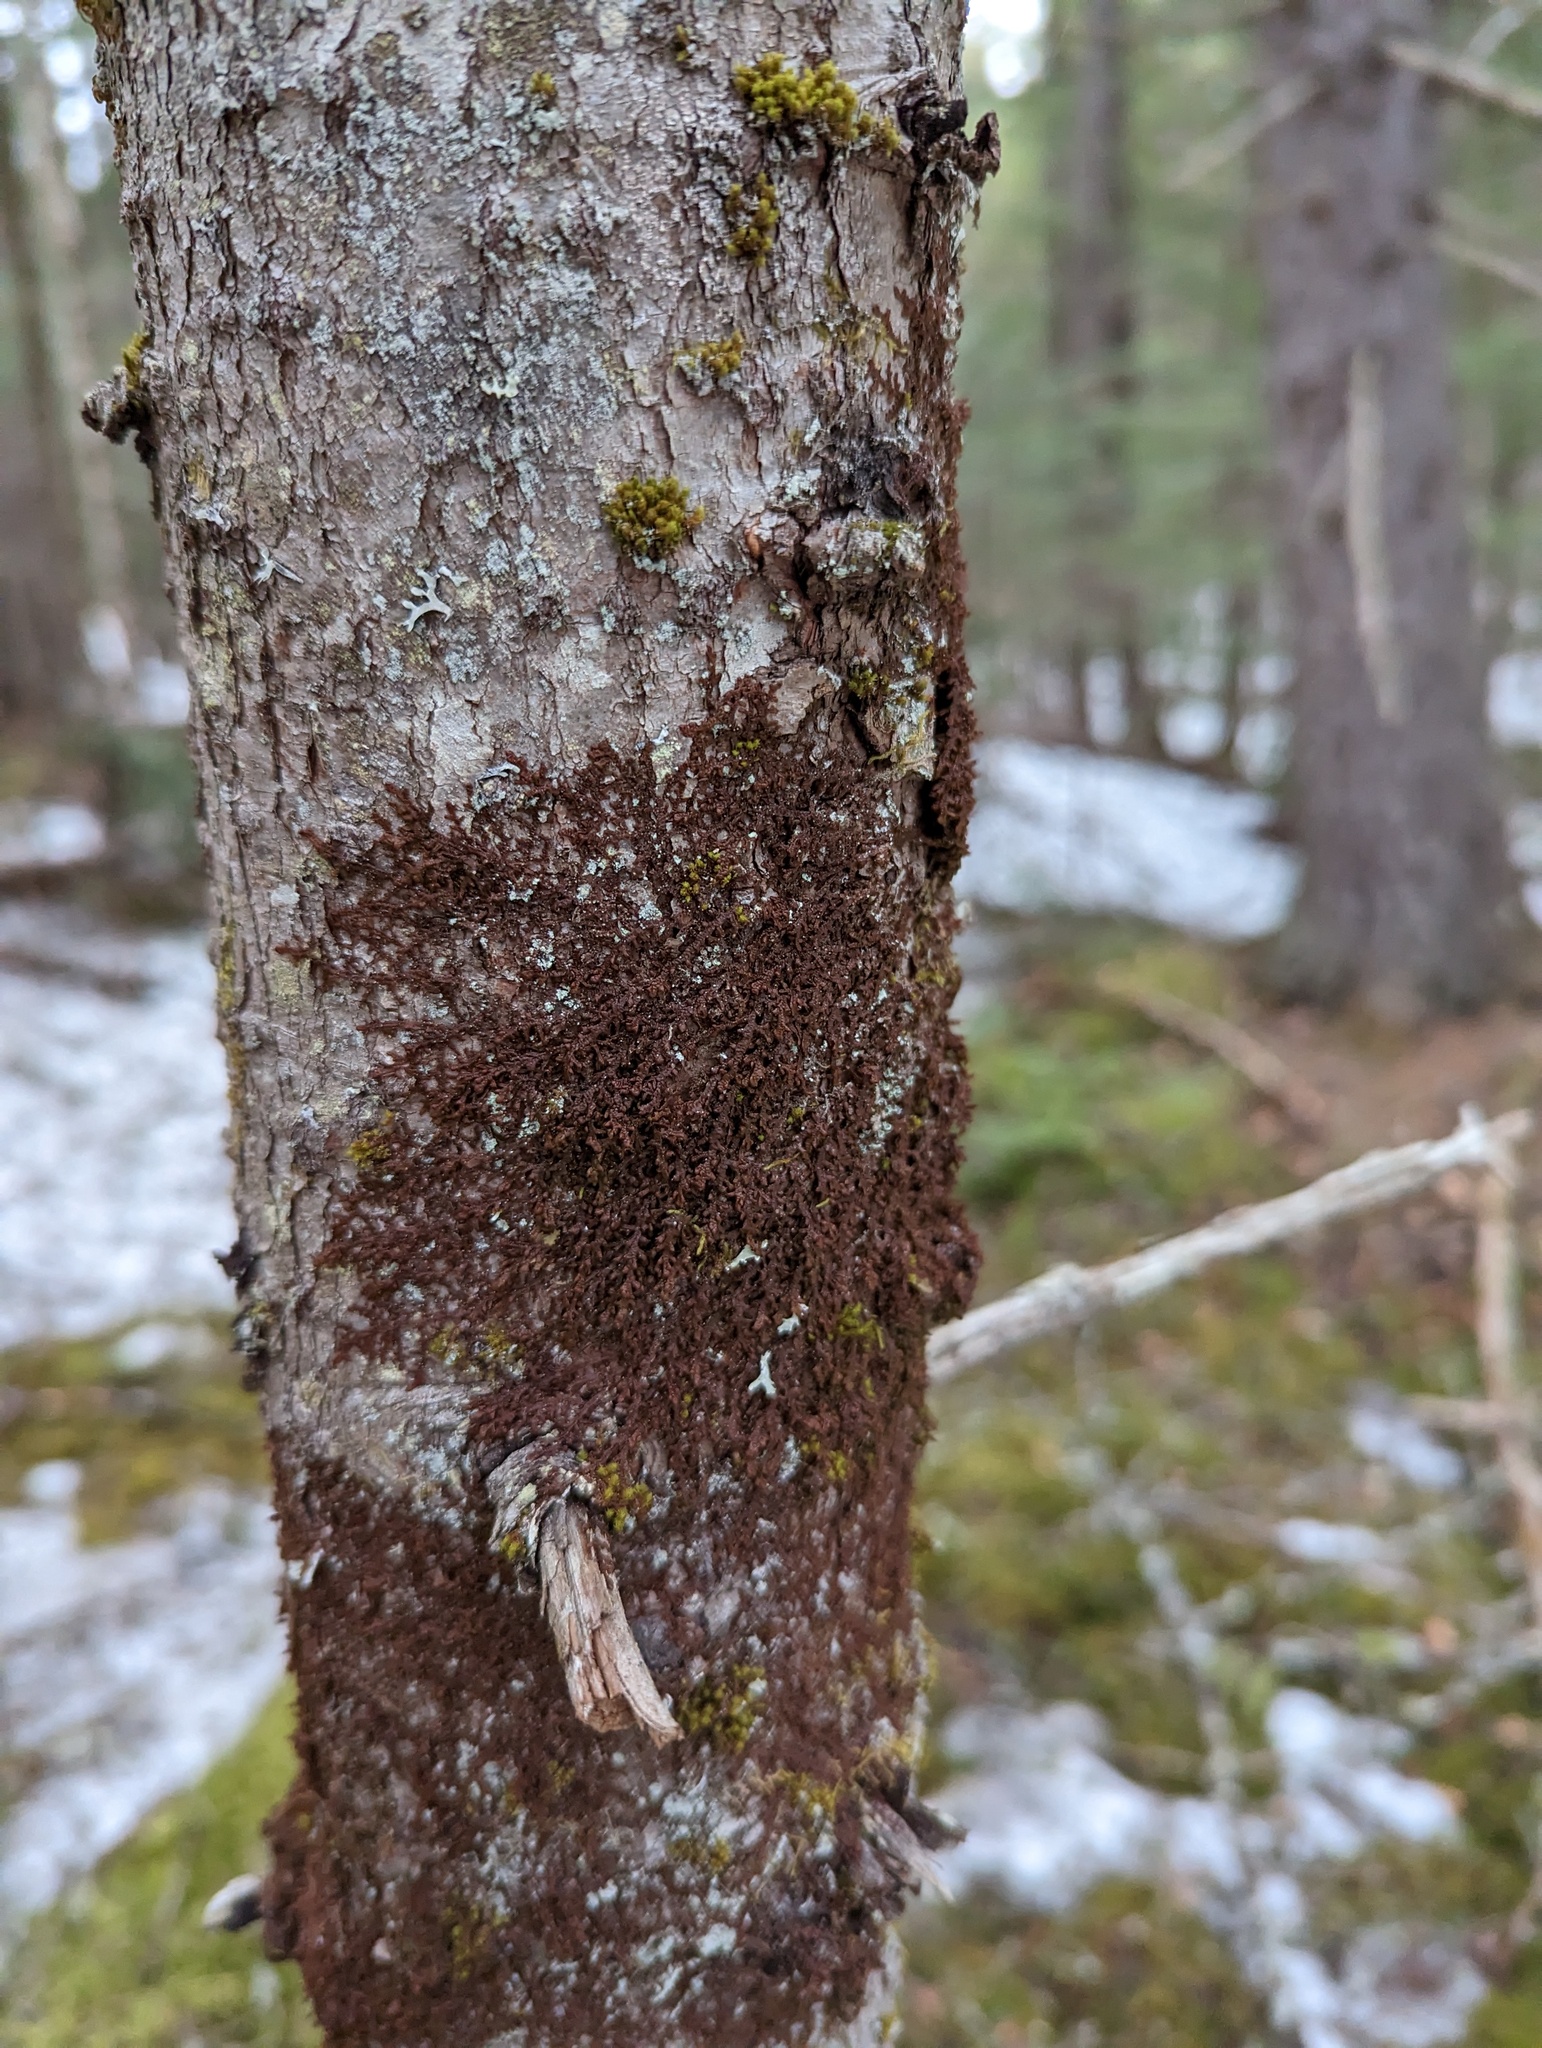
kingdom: Plantae
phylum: Marchantiophyta
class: Jungermanniopsida
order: Porellales
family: Frullaniaceae
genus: Frullania
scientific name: Frullania eboracensis
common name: New york scalewort
